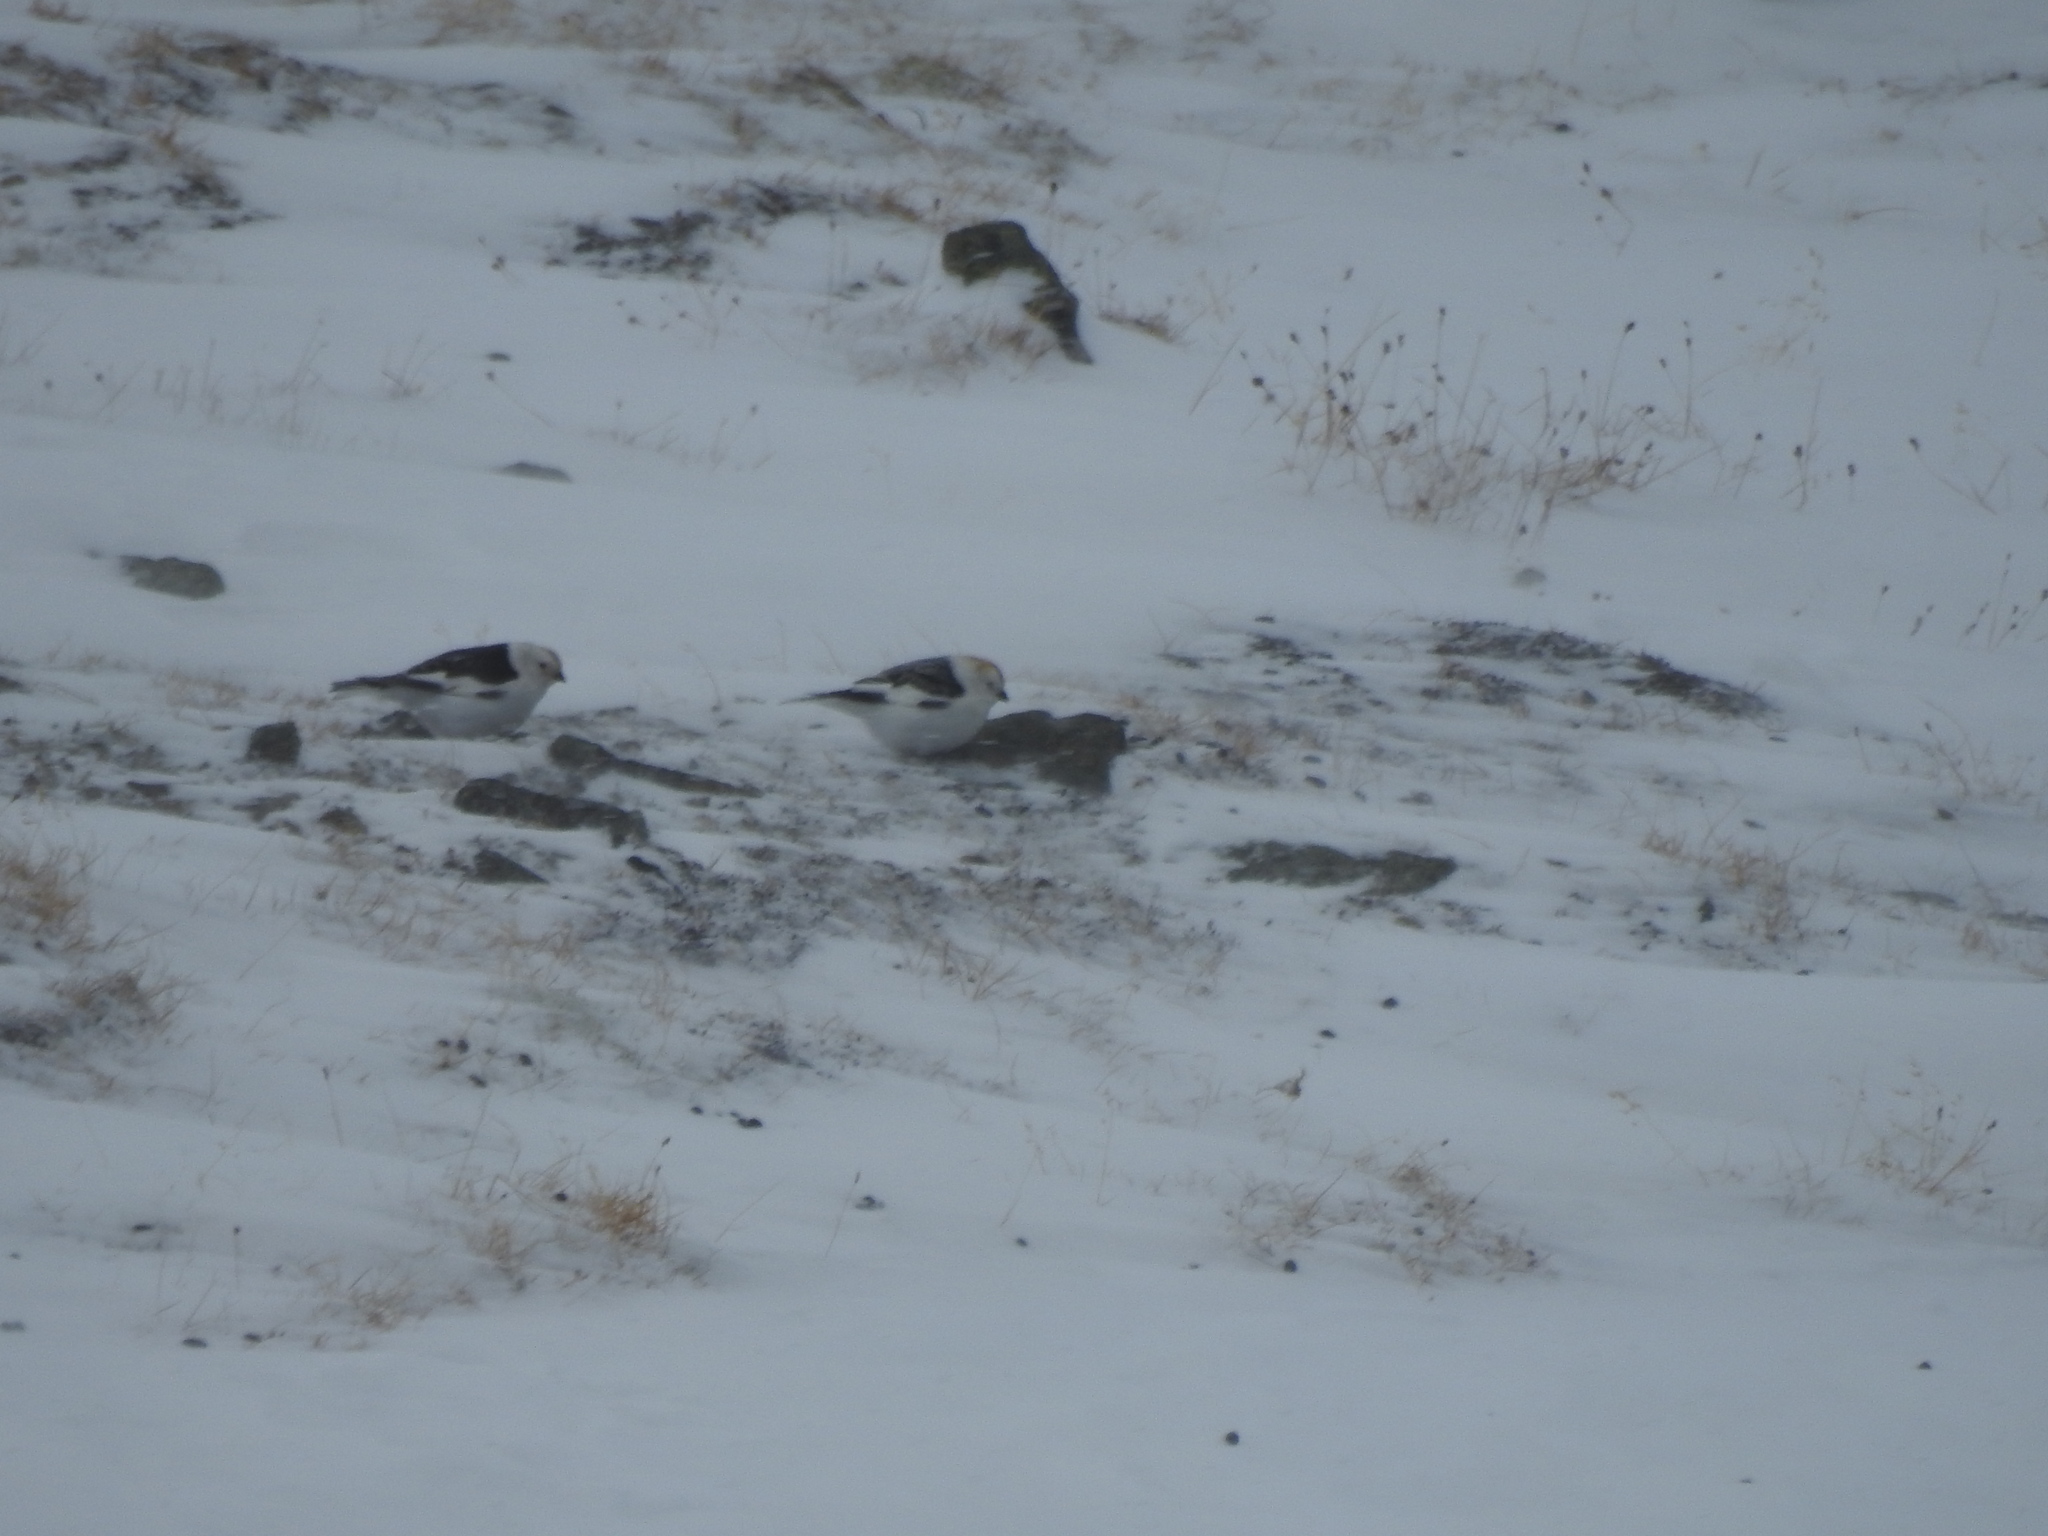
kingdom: Animalia
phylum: Chordata
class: Aves
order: Passeriformes
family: Calcariidae
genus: Plectrophenax
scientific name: Plectrophenax nivalis
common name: Snow bunting
